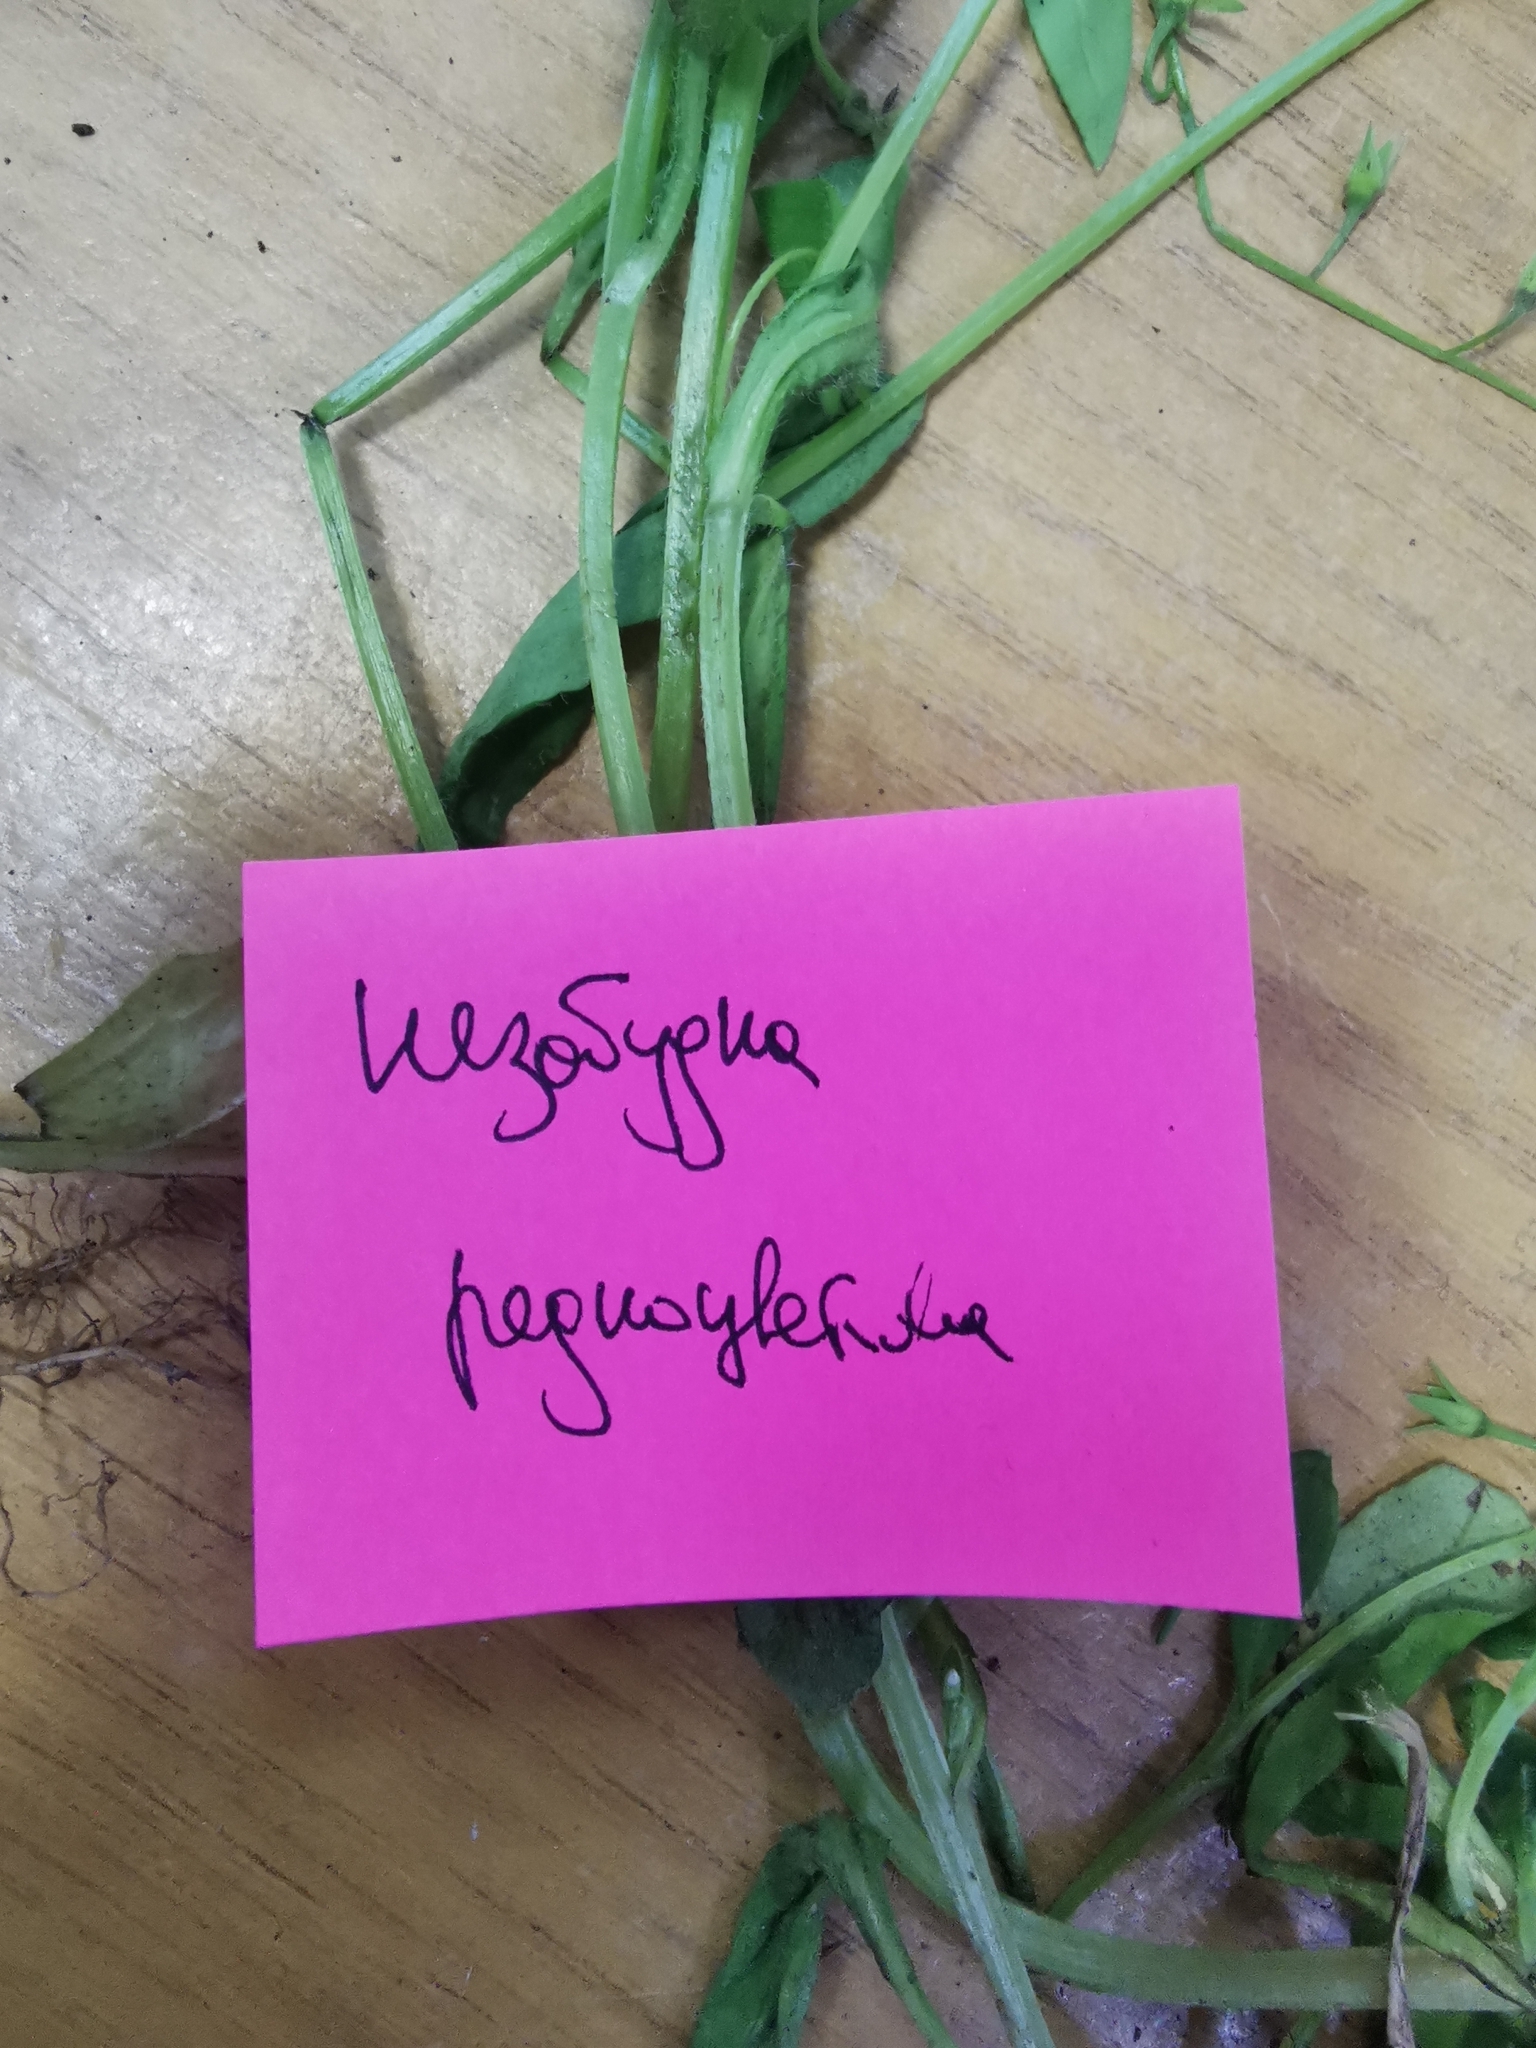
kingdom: Plantae
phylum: Tracheophyta
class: Magnoliopsida
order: Boraginales
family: Boraginaceae
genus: Myosotis
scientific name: Myosotis sparsiflora
